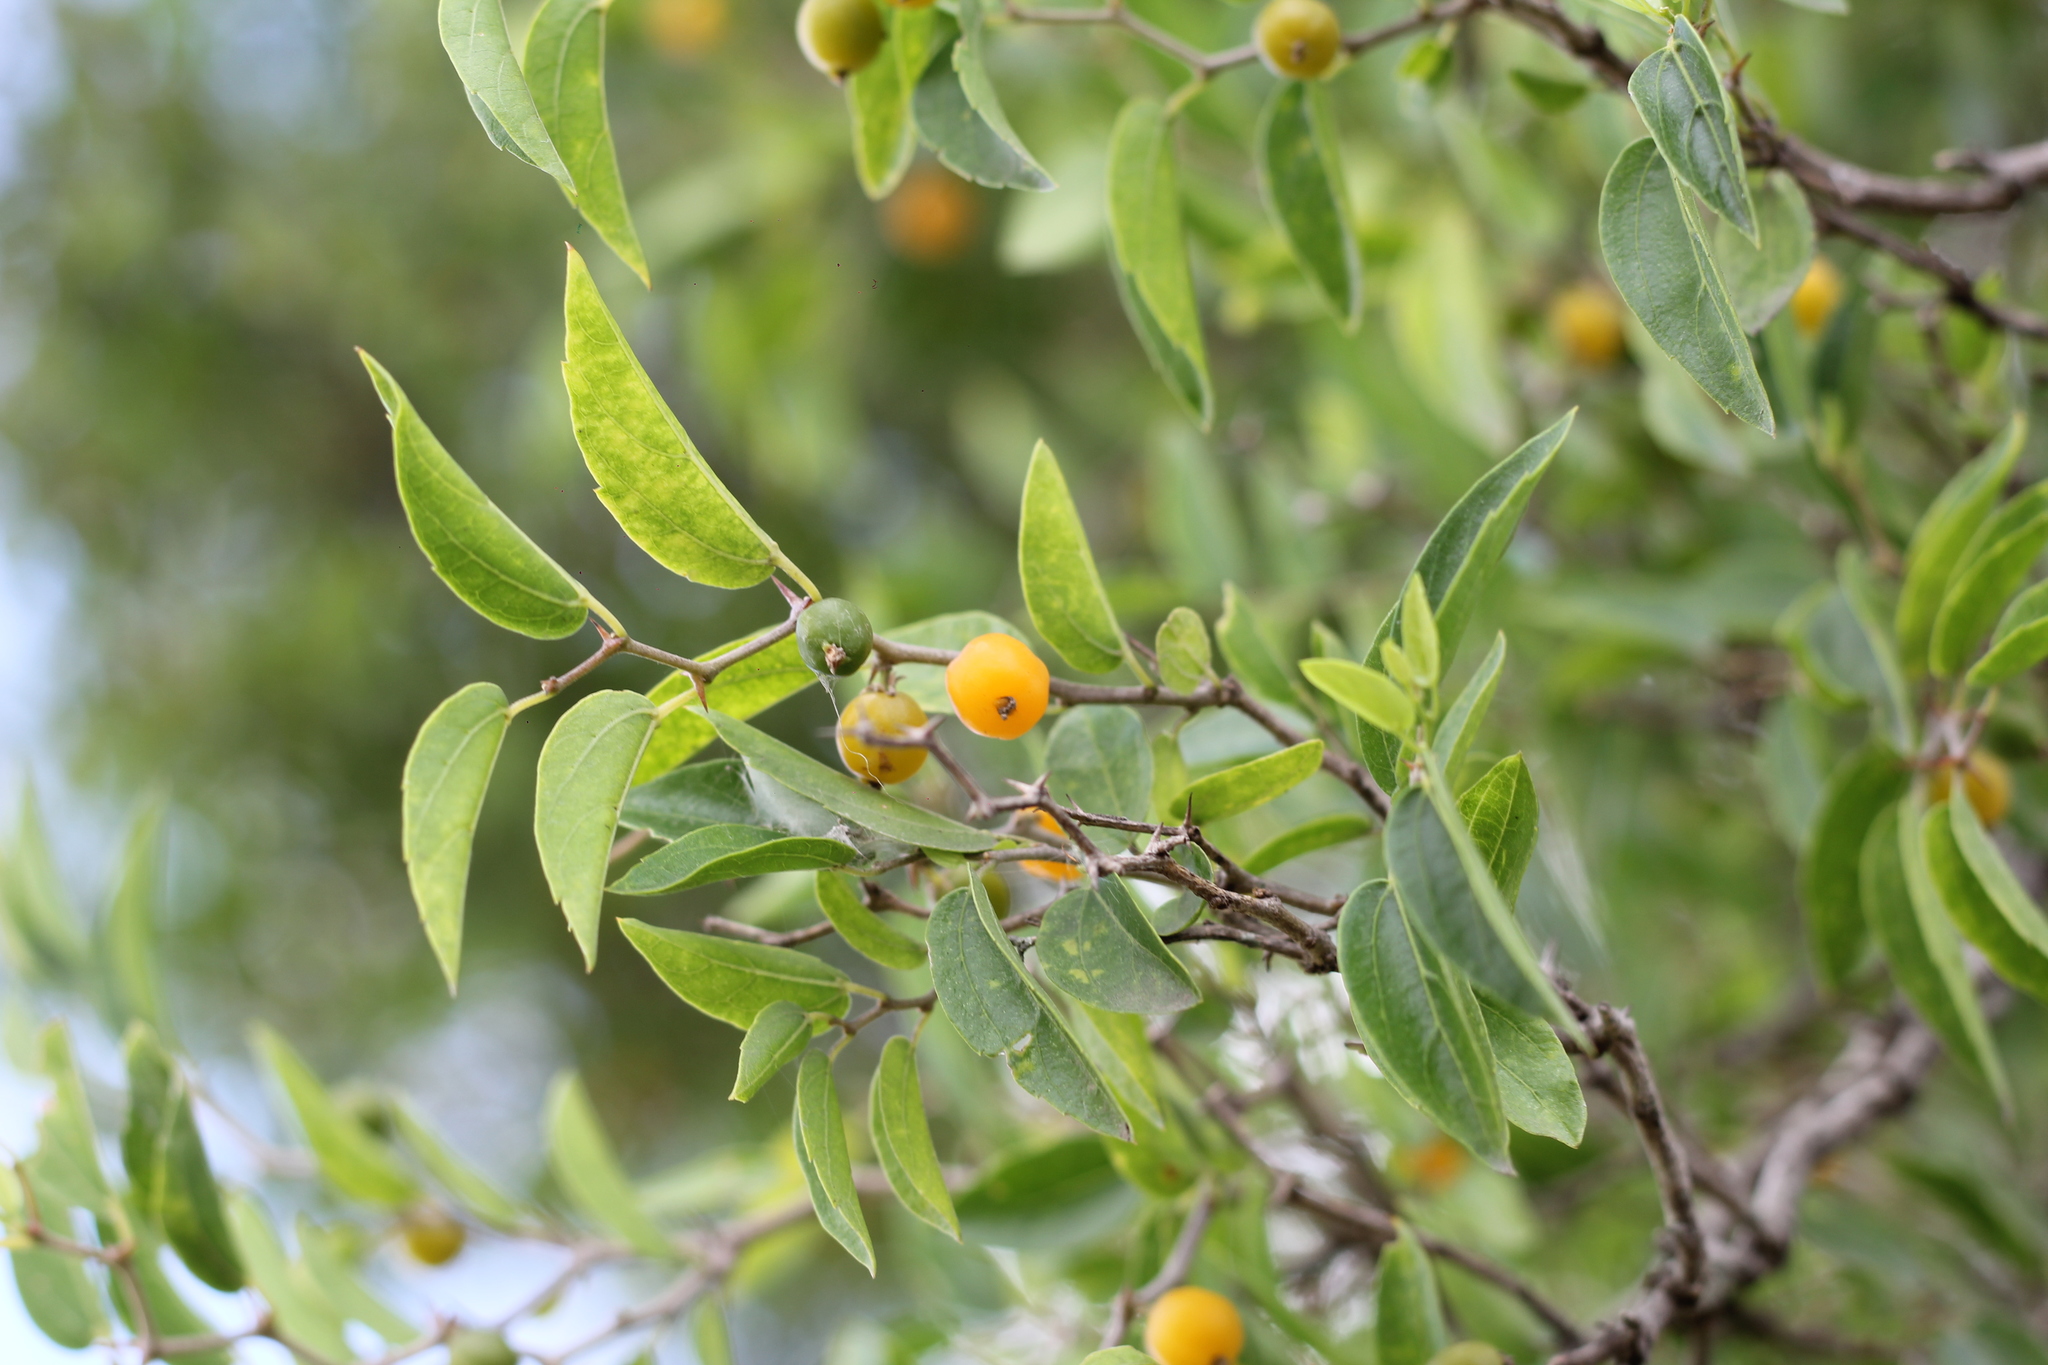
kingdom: Plantae
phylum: Tracheophyta
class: Magnoliopsida
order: Rosales
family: Cannabaceae
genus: Celtis
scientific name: Celtis tala
